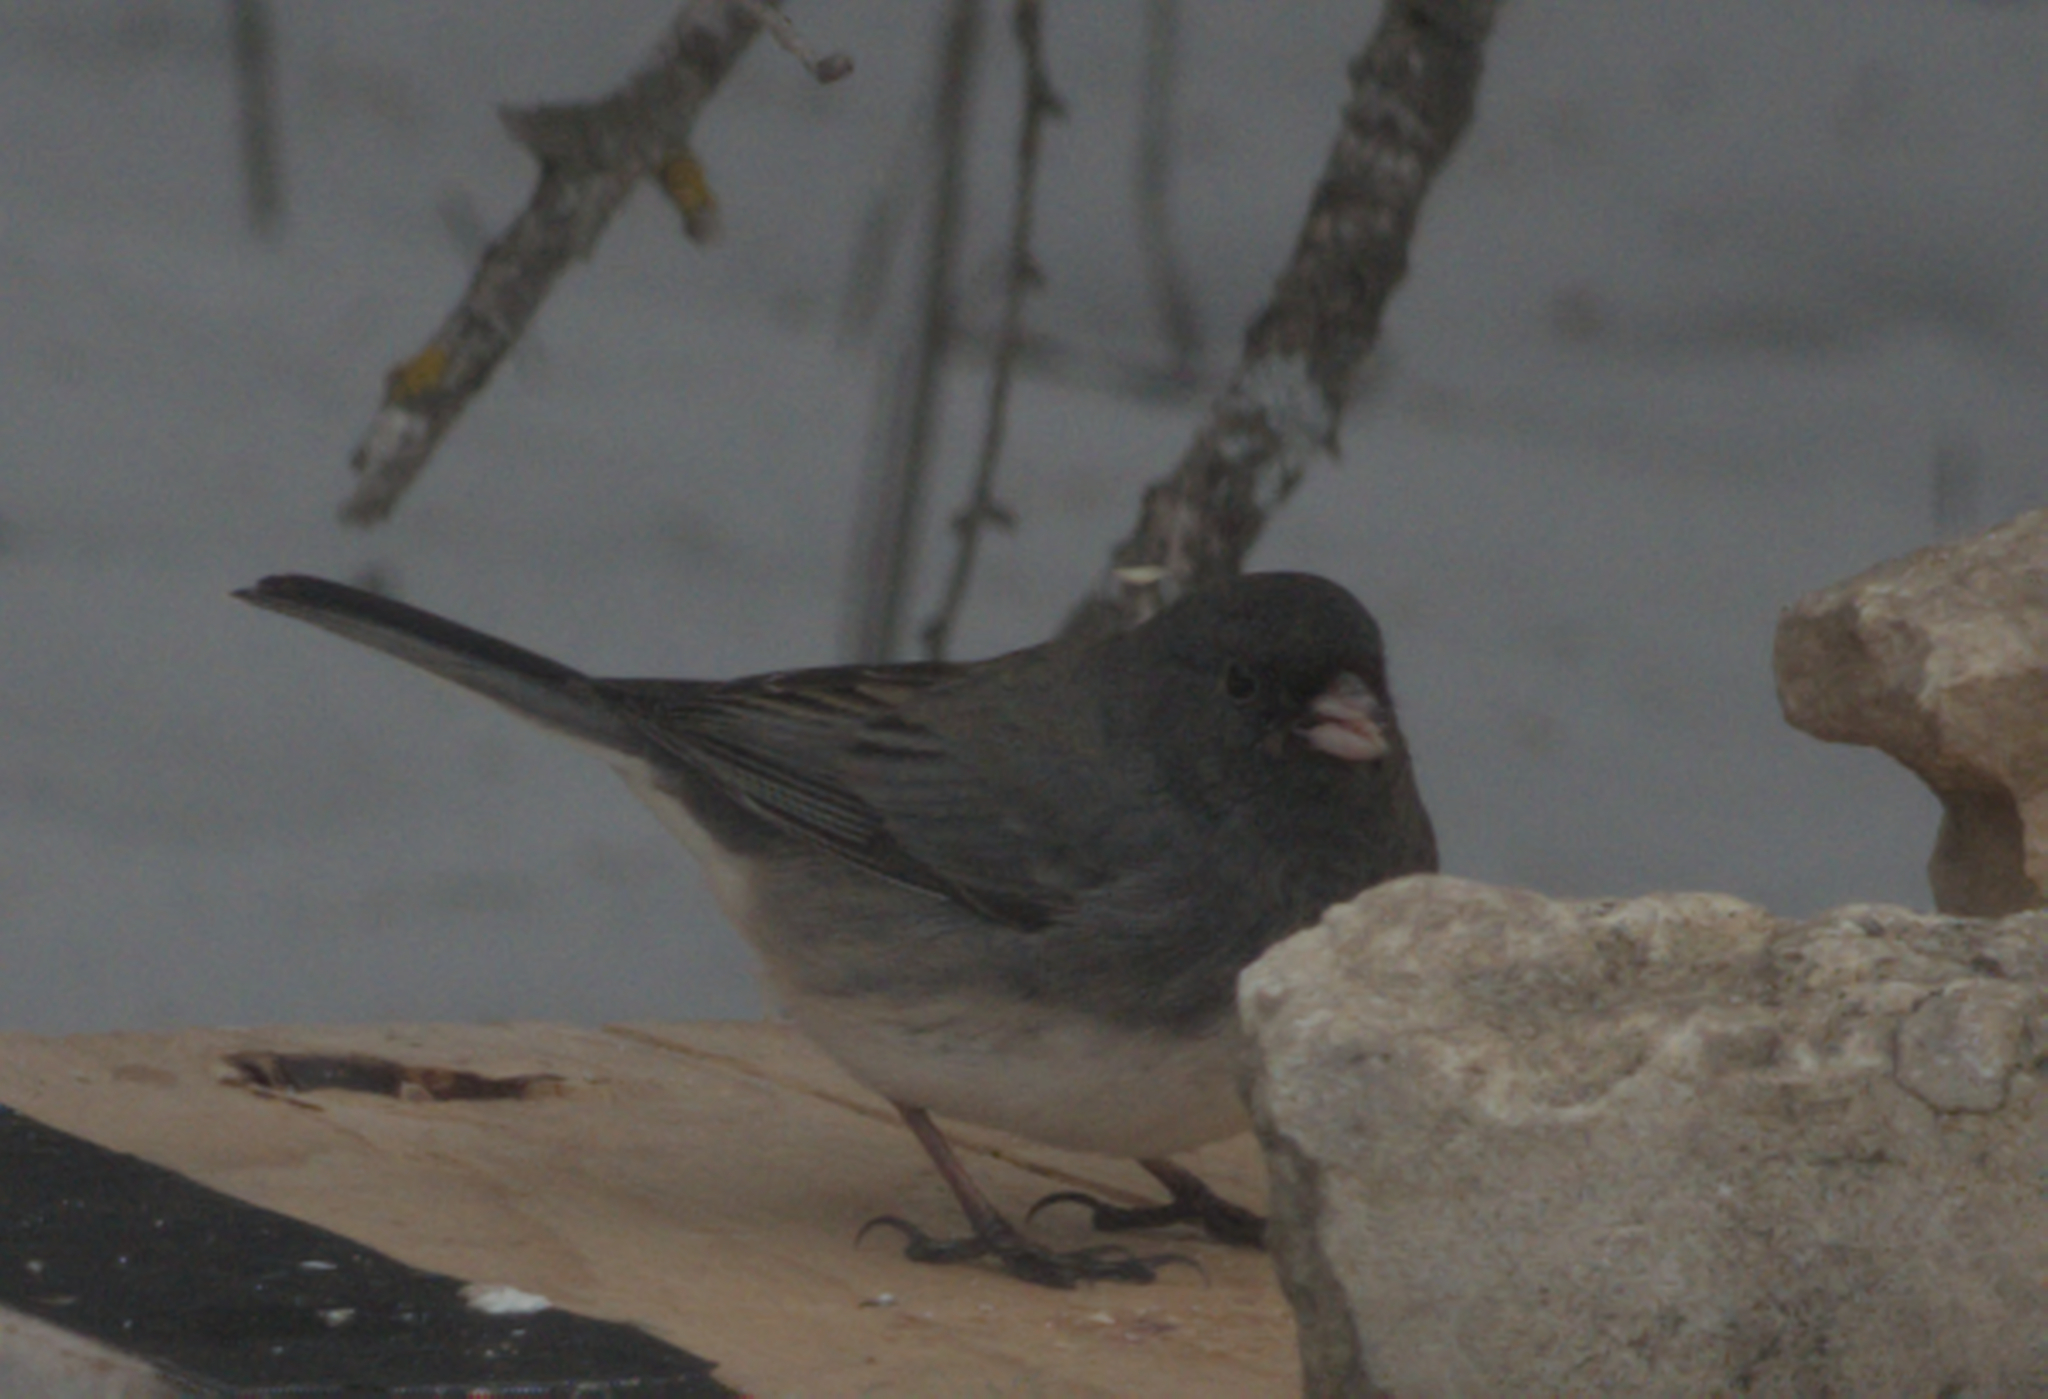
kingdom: Animalia
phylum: Chordata
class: Aves
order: Passeriformes
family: Passerellidae
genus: Junco
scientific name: Junco hyemalis
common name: Dark-eyed junco
